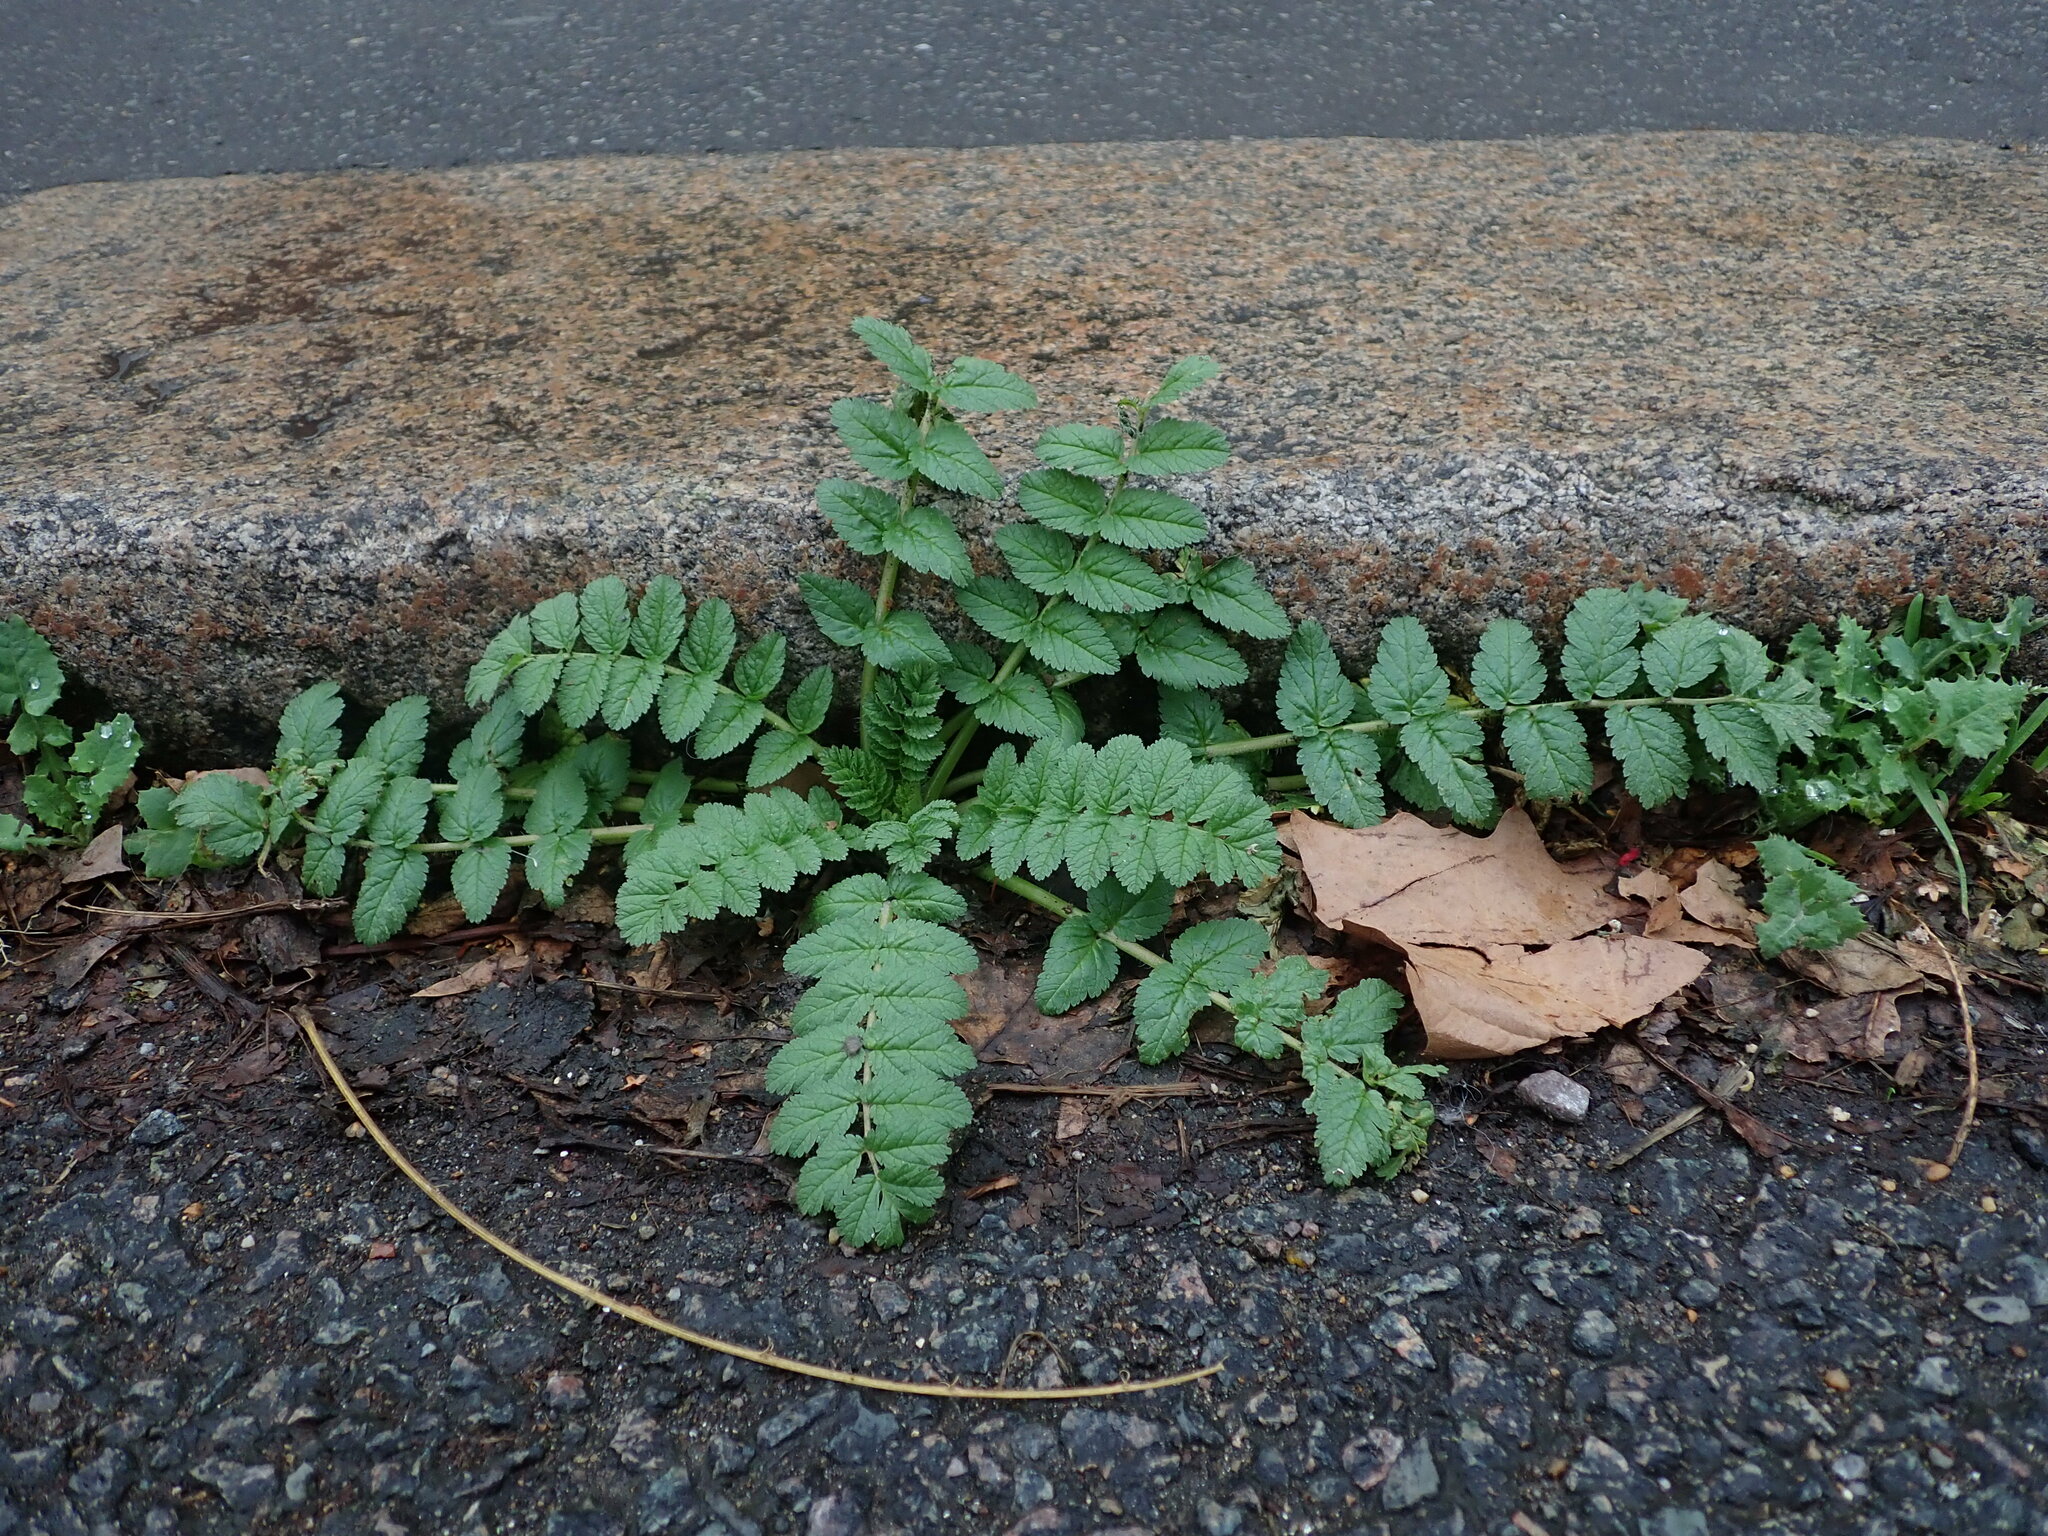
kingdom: Plantae
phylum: Tracheophyta
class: Magnoliopsida
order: Geraniales
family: Geraniaceae
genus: Erodium
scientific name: Erodium moschatum
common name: Musk stork's-bill
